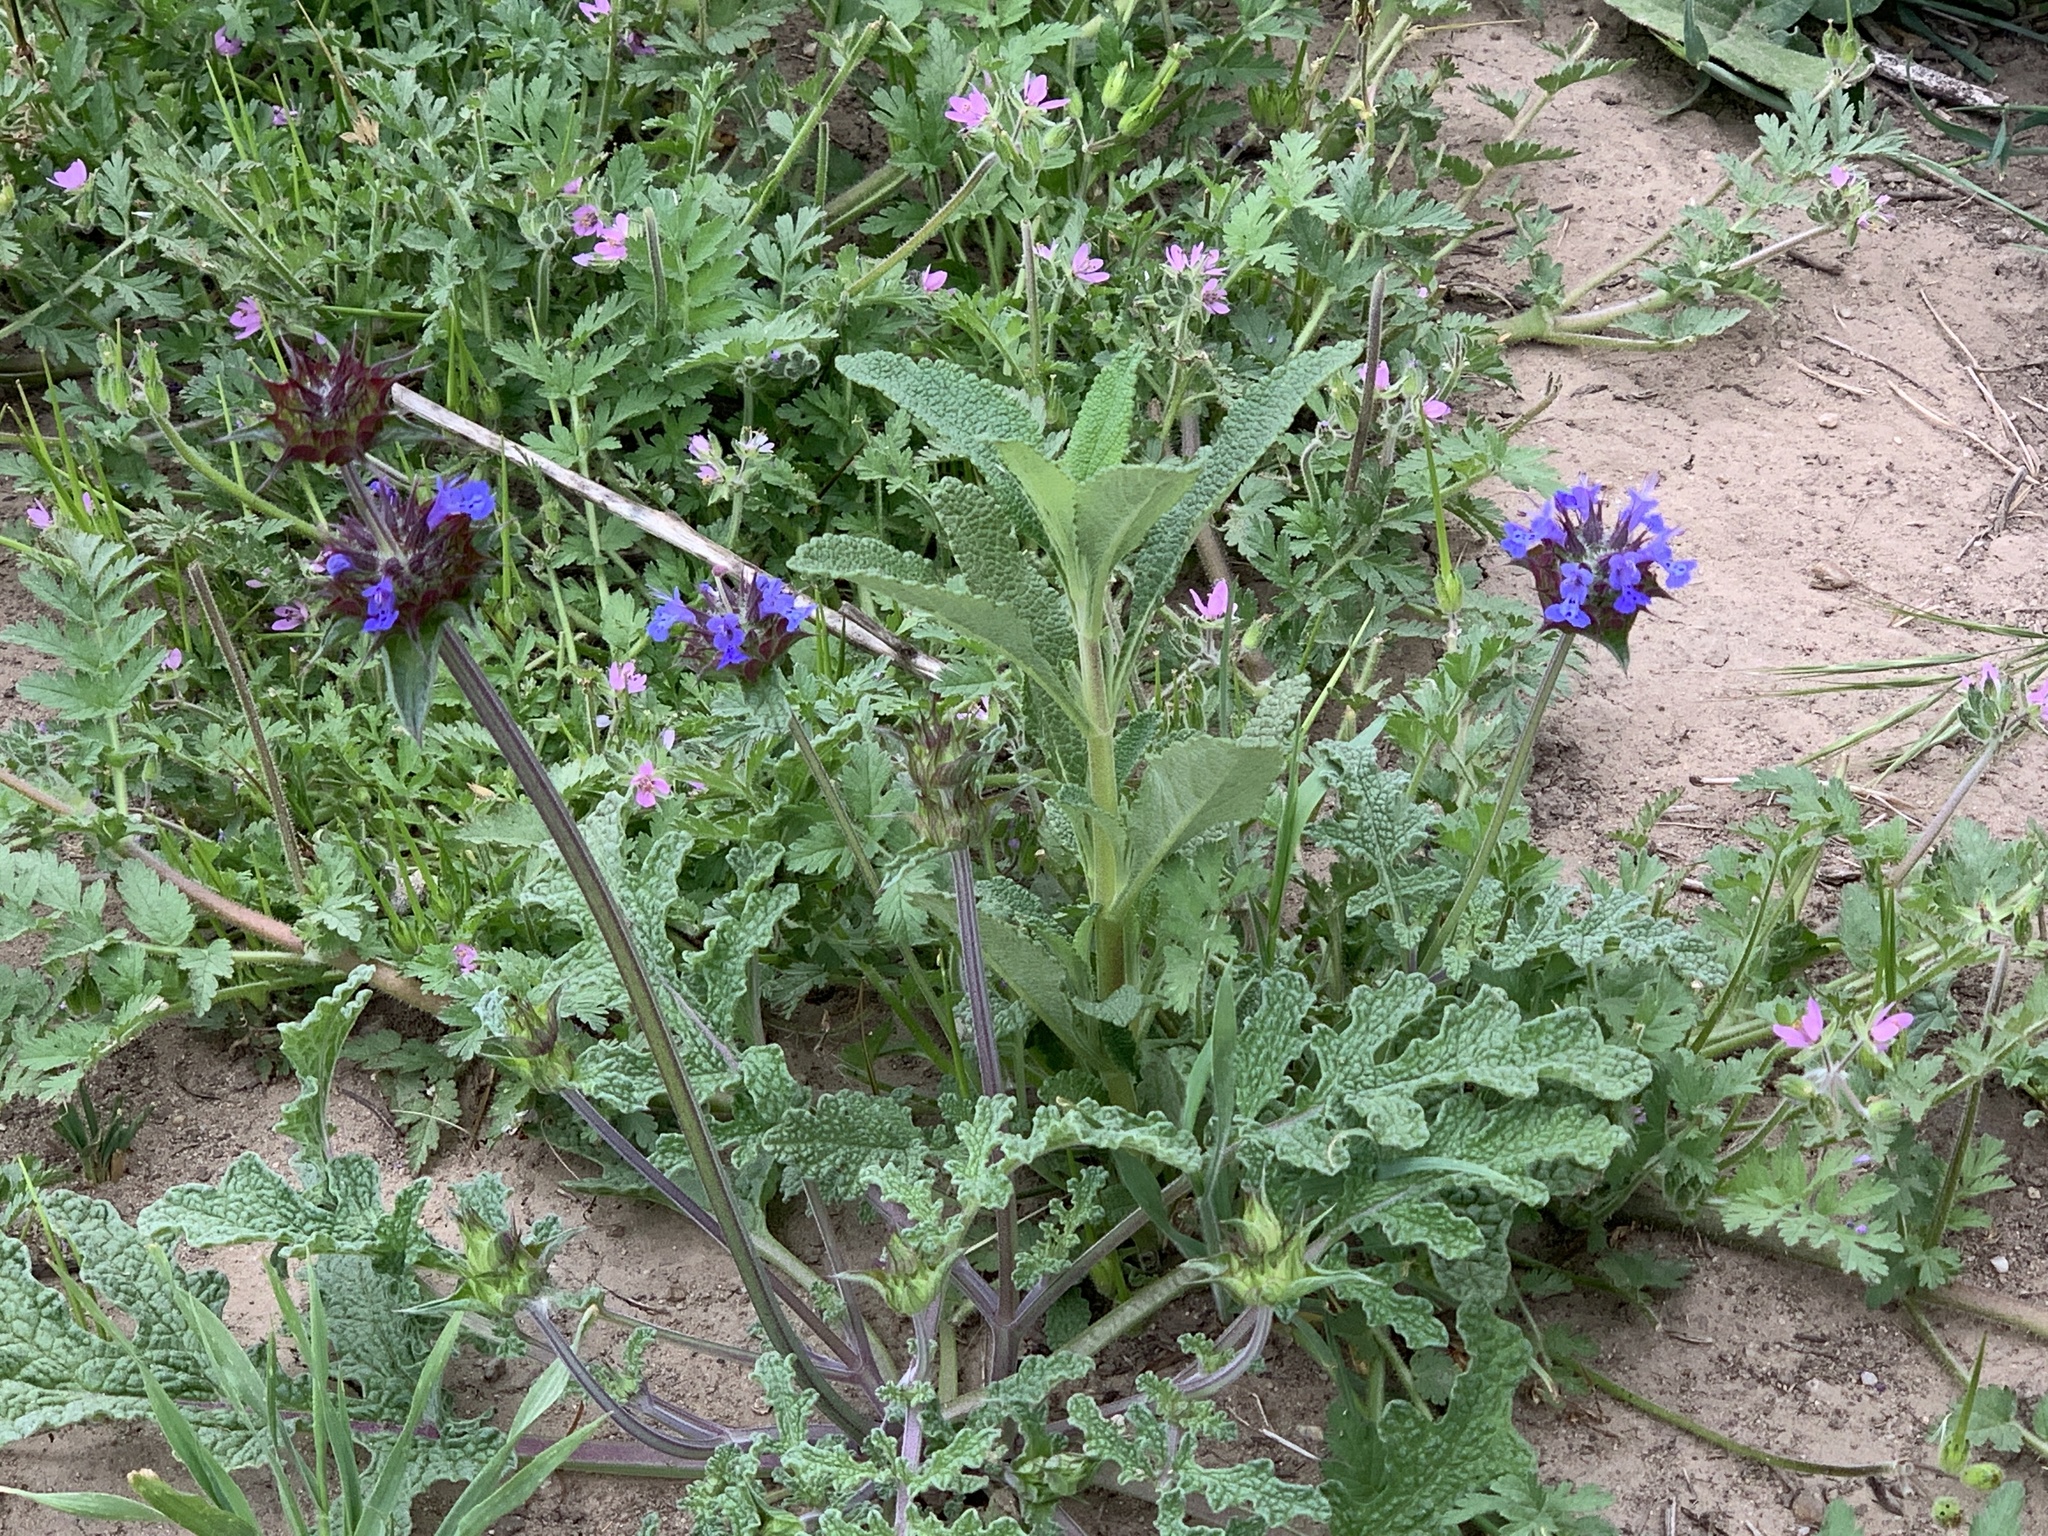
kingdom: Plantae
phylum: Tracheophyta
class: Magnoliopsida
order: Lamiales
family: Lamiaceae
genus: Salvia
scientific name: Salvia columbariae
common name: Chia
